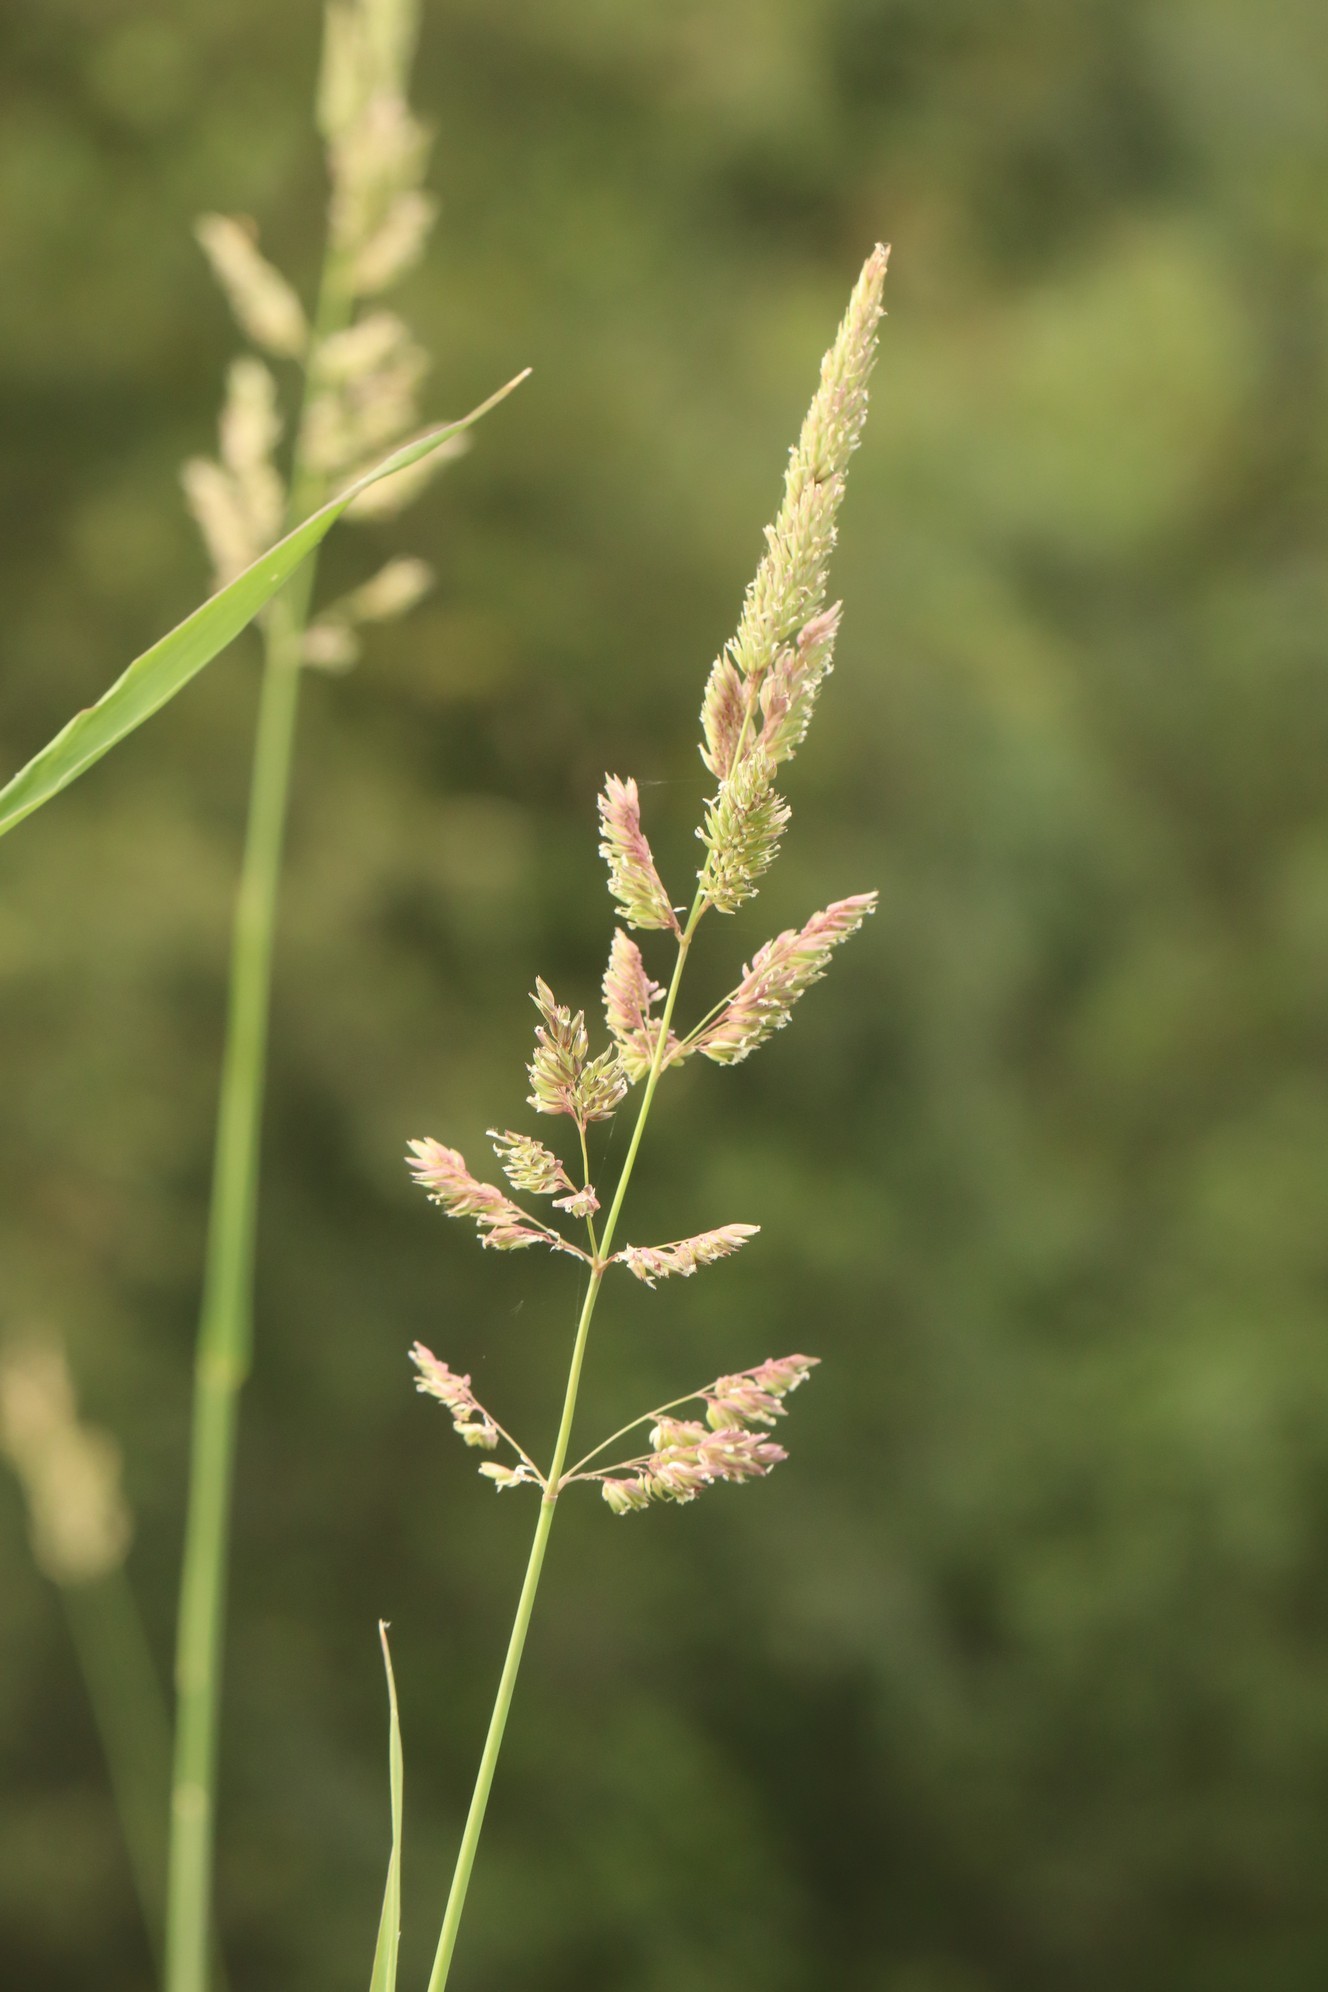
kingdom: Plantae
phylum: Tracheophyta
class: Liliopsida
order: Poales
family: Poaceae
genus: Phalaris
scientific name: Phalaris arundinacea
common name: Reed canary-grass
